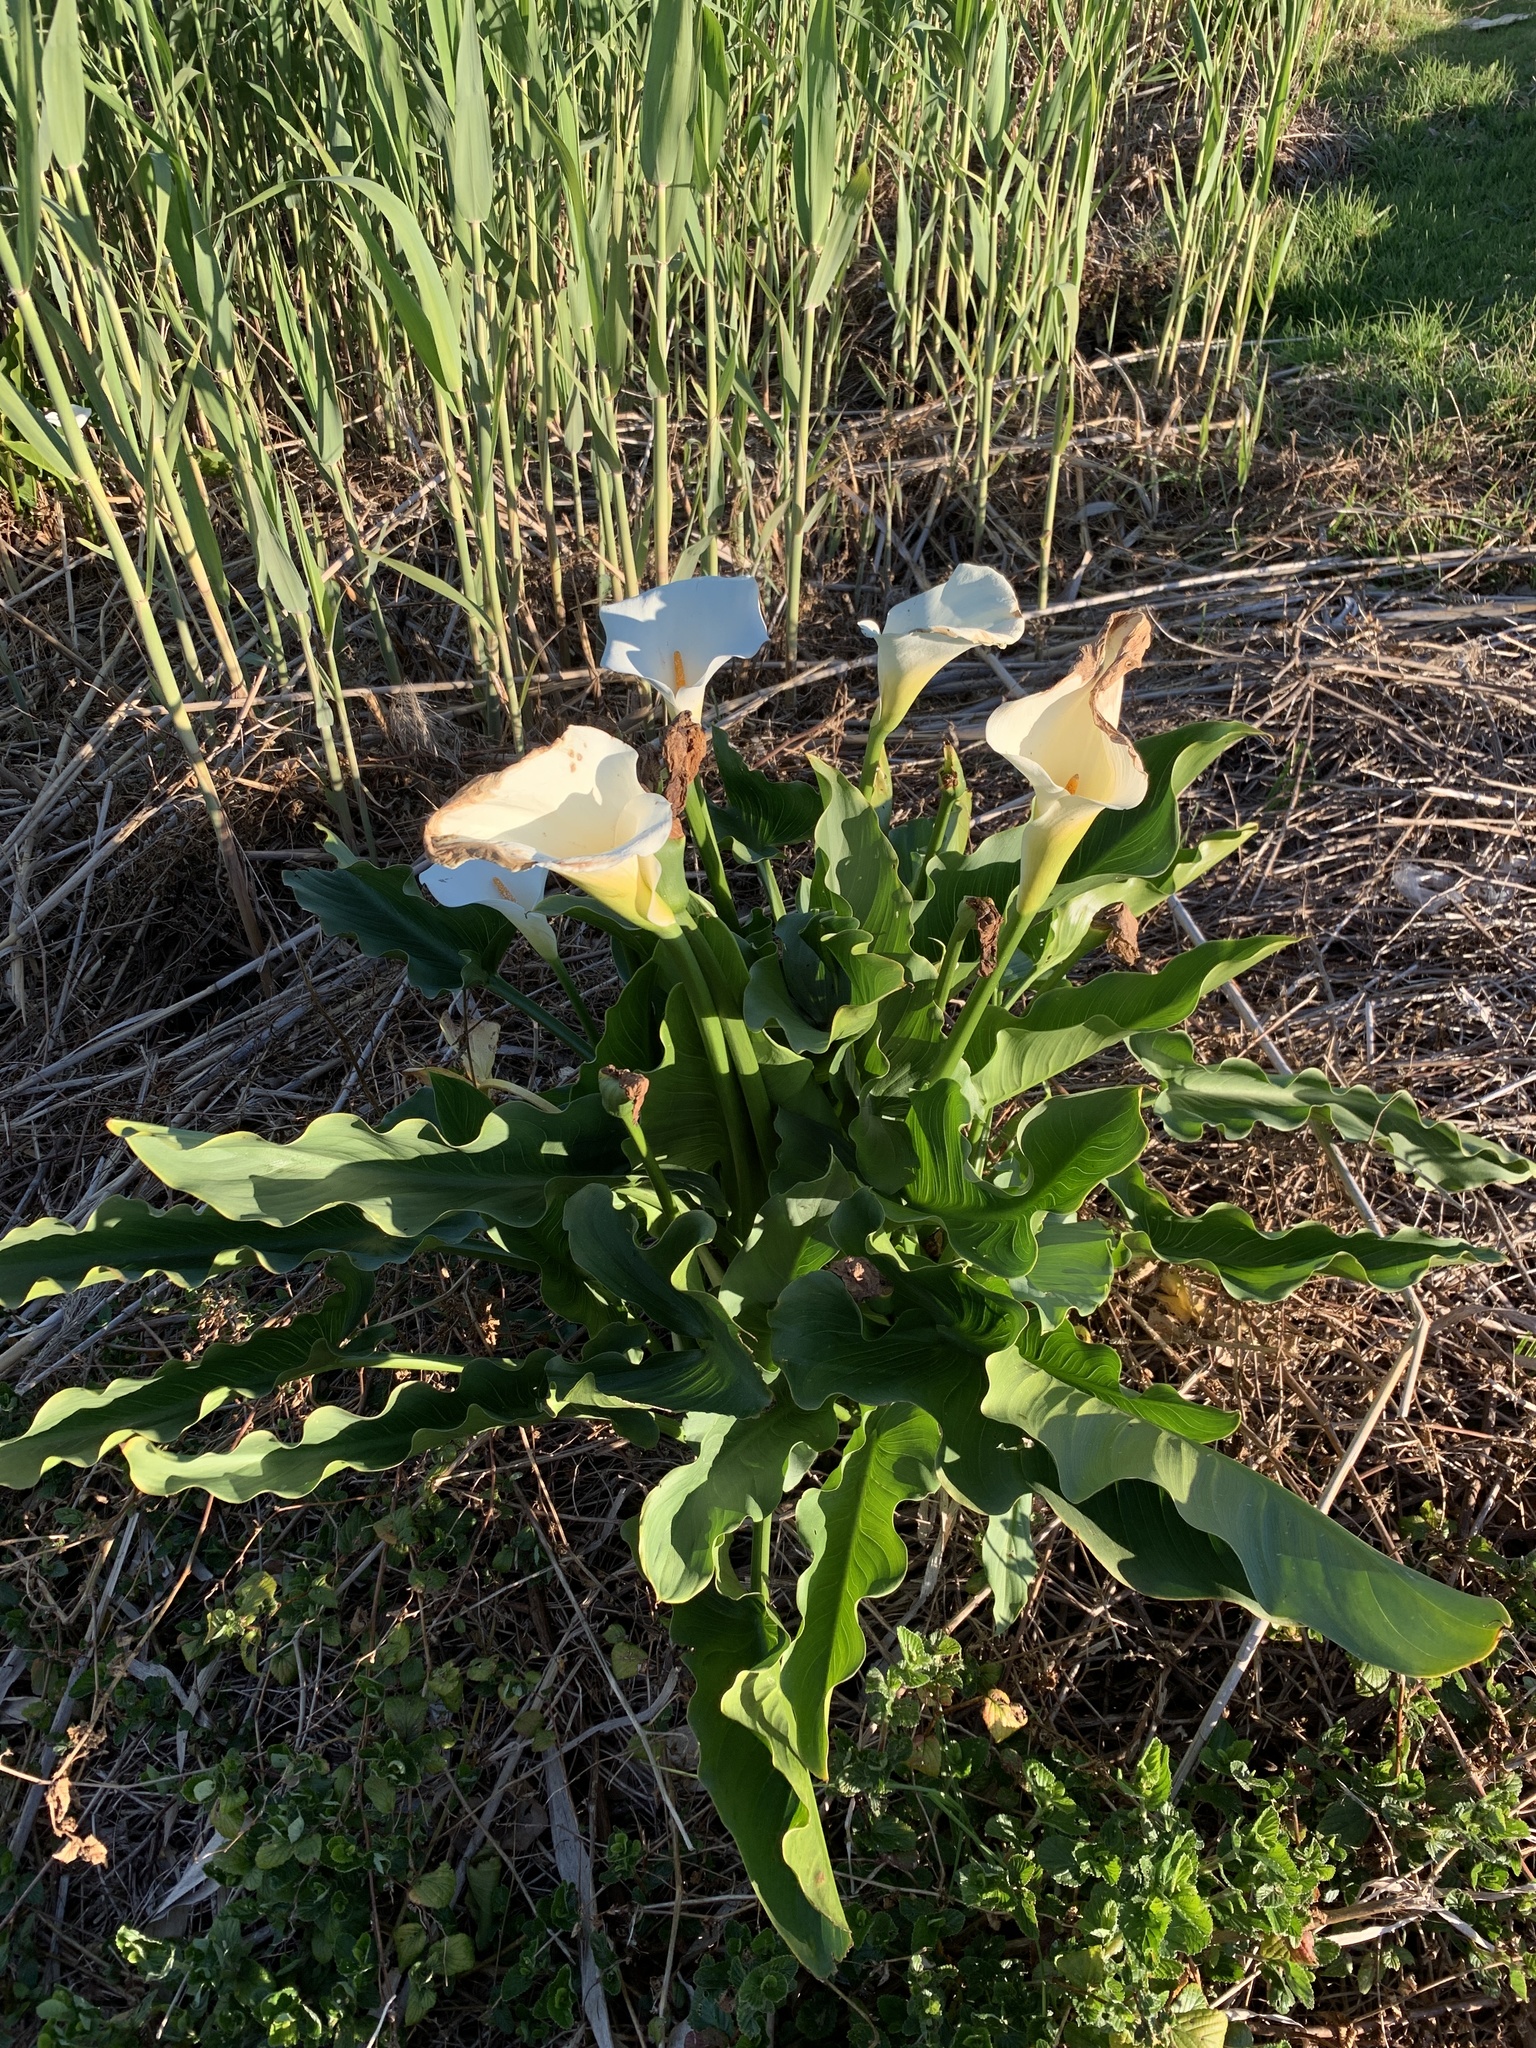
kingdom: Plantae
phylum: Tracheophyta
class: Liliopsida
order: Alismatales
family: Araceae
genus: Zantedeschia
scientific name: Zantedeschia aethiopica
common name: Altar-lily
